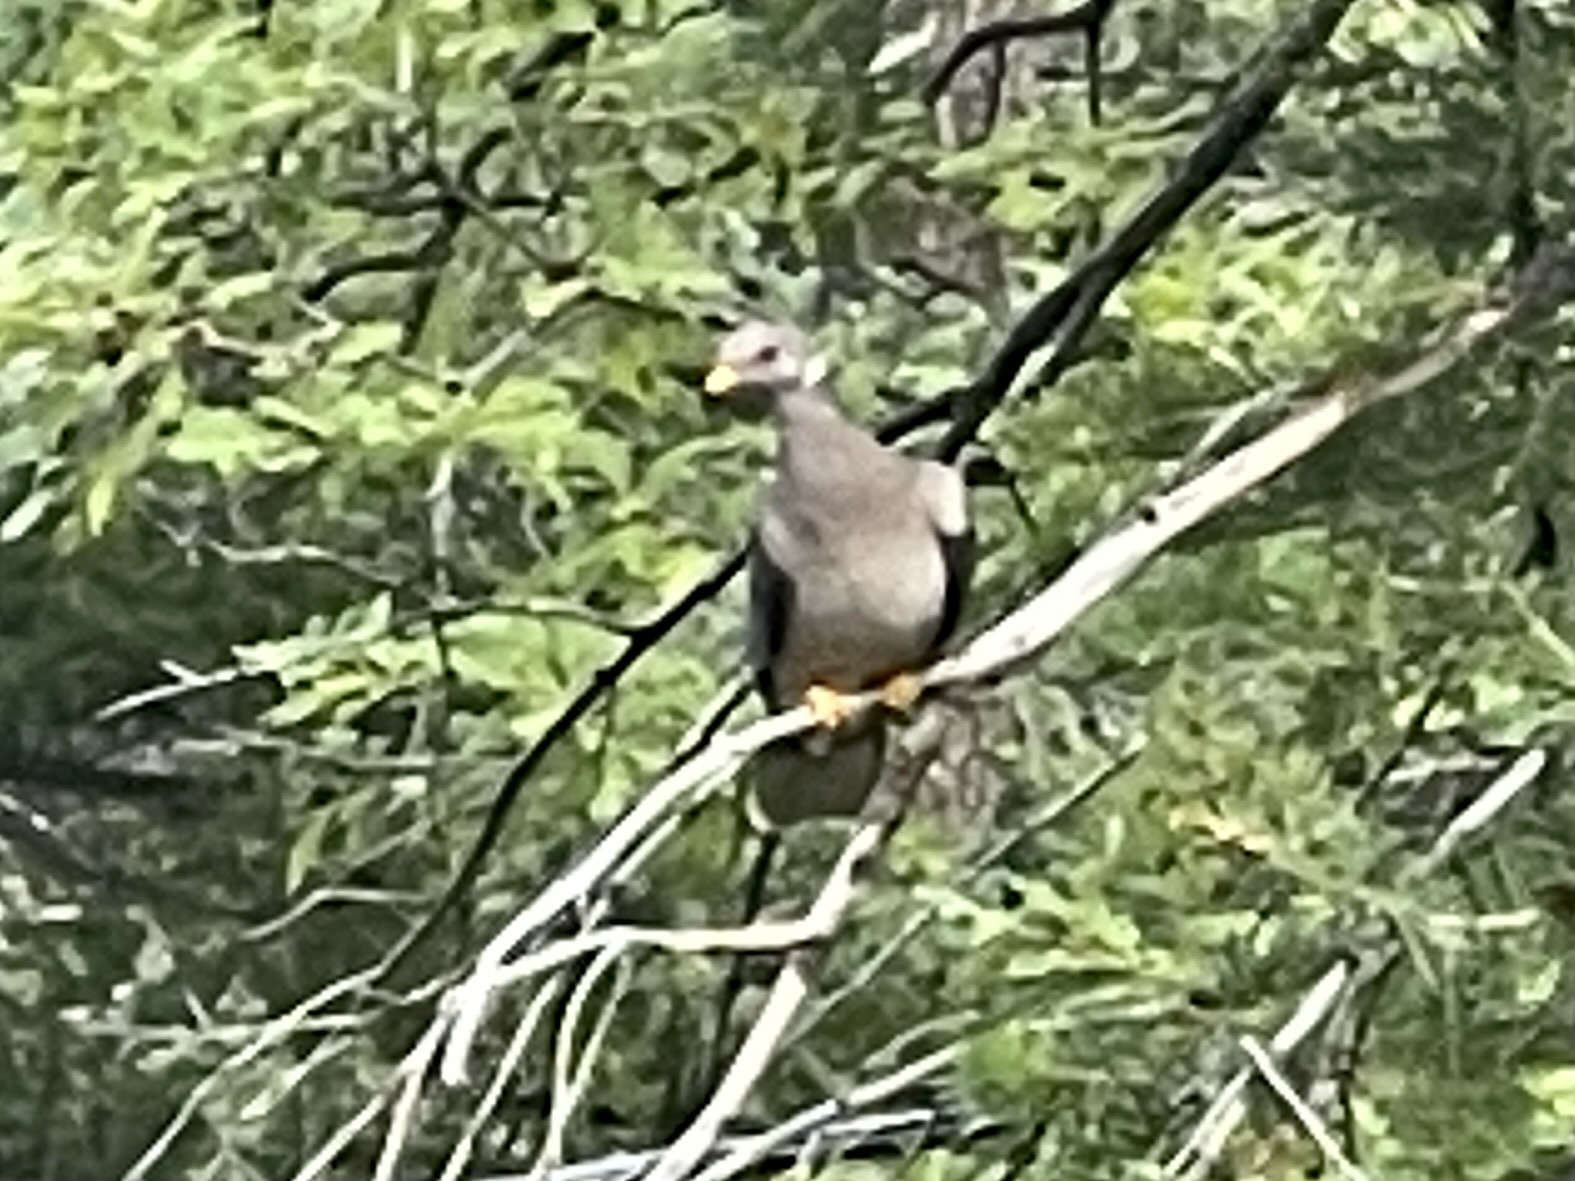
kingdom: Animalia
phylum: Chordata
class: Aves
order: Columbiformes
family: Columbidae
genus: Patagioenas
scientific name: Patagioenas fasciata
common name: Band-tailed pigeon
